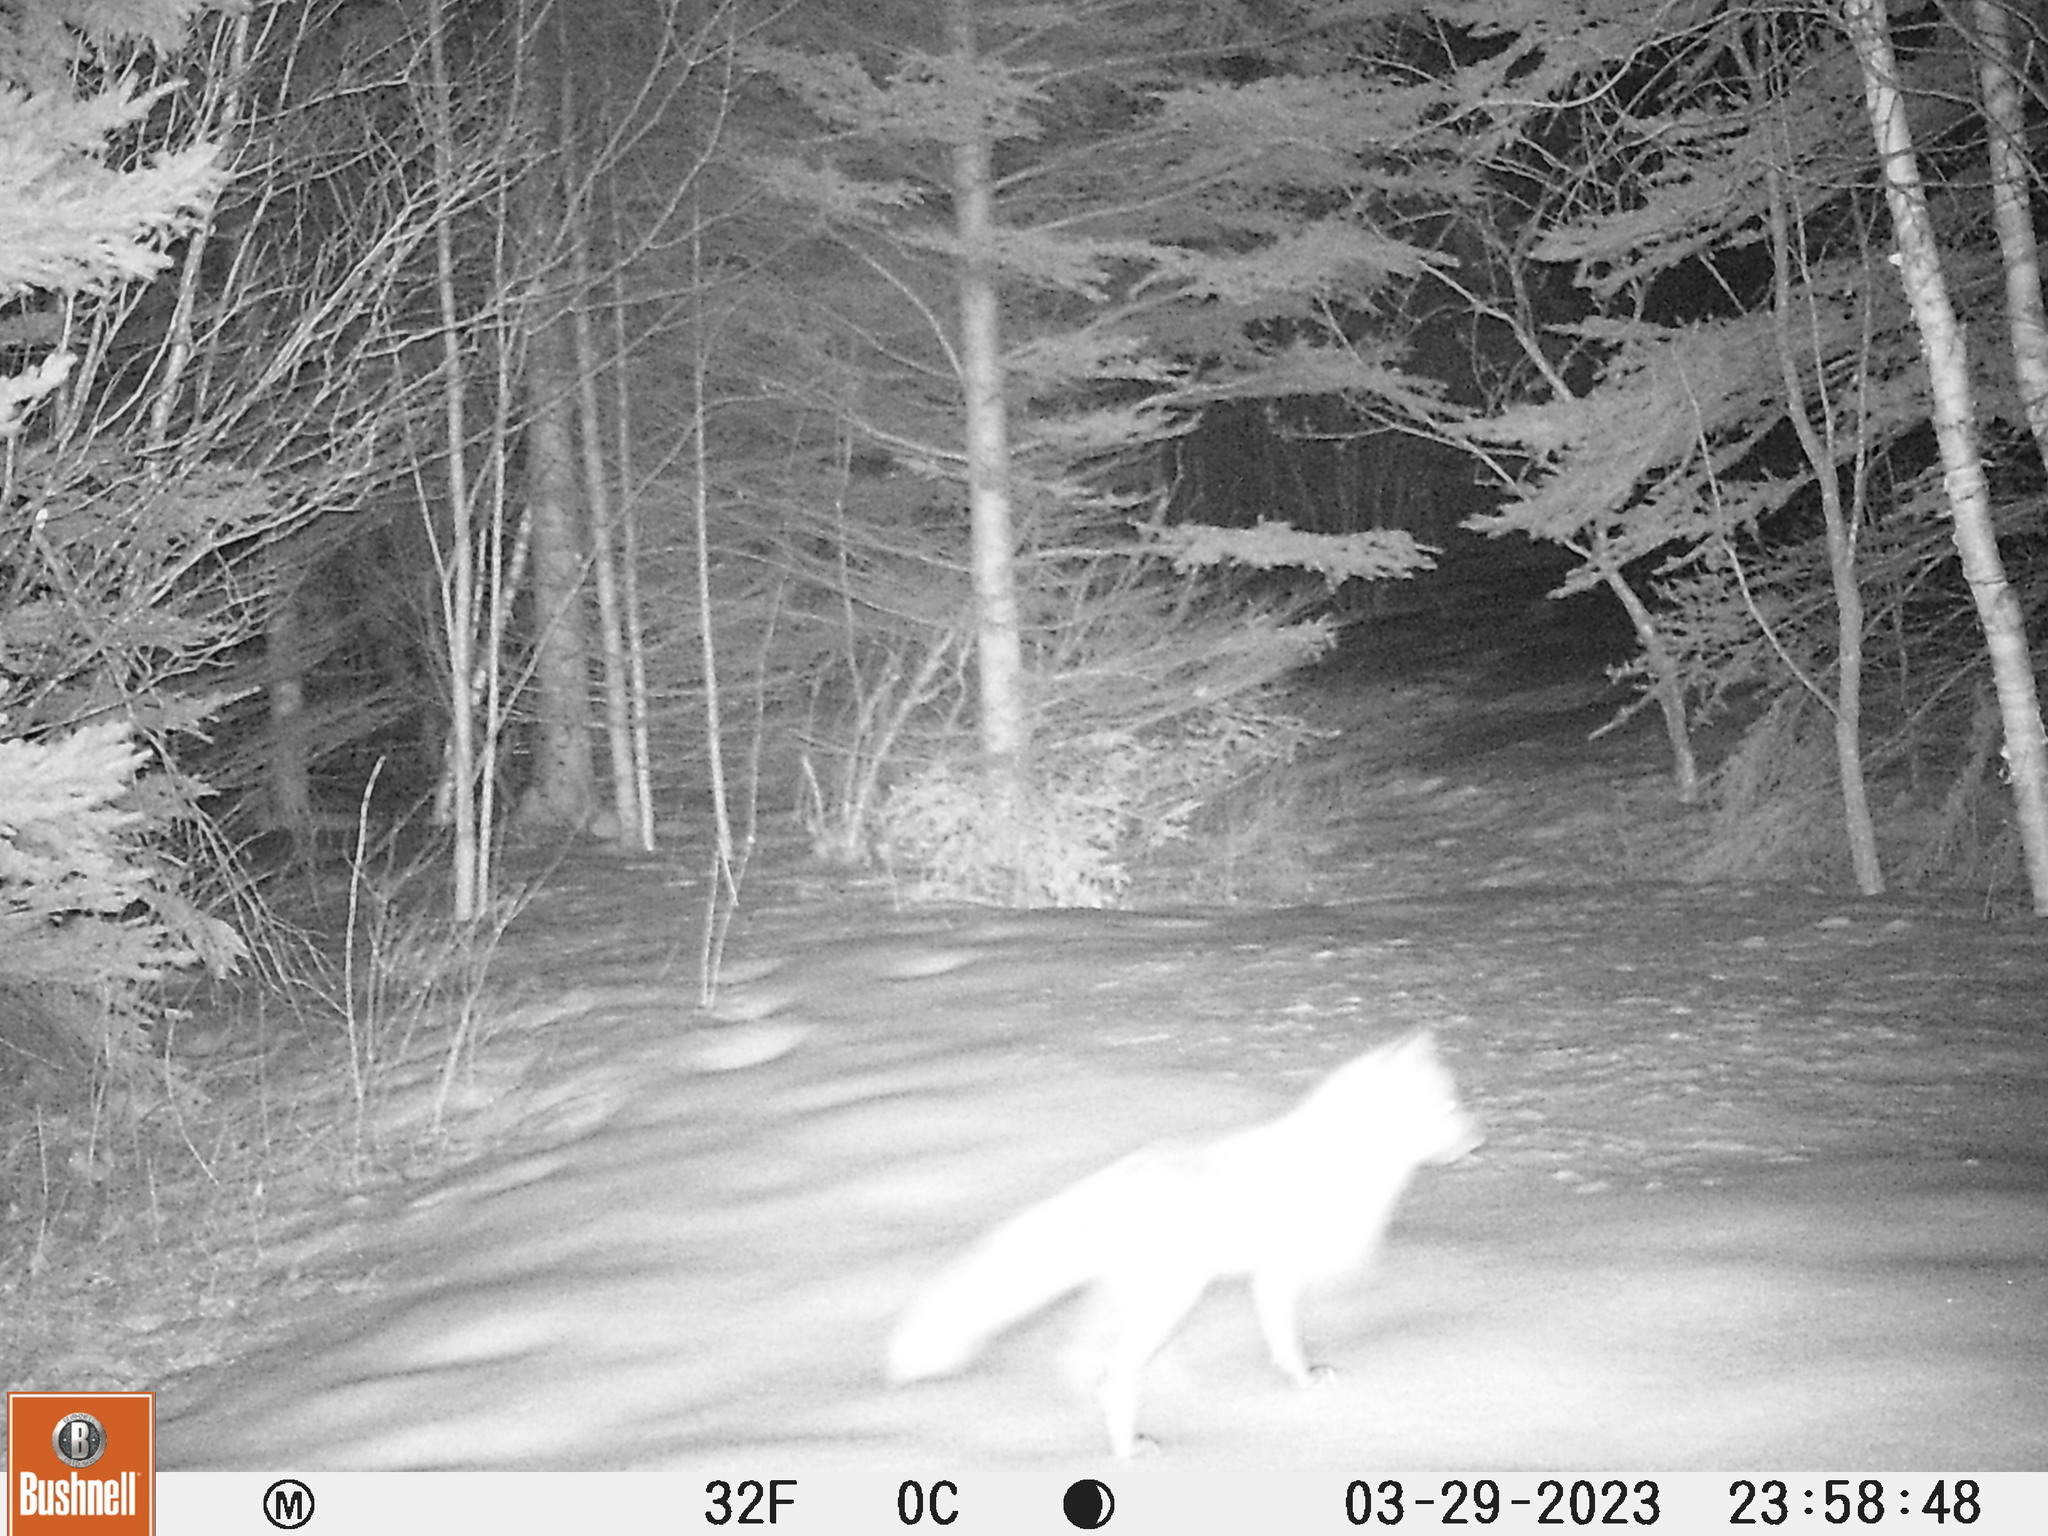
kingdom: Animalia
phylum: Chordata
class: Mammalia
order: Carnivora
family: Canidae
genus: Vulpes
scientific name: Vulpes vulpes
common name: Red fox
